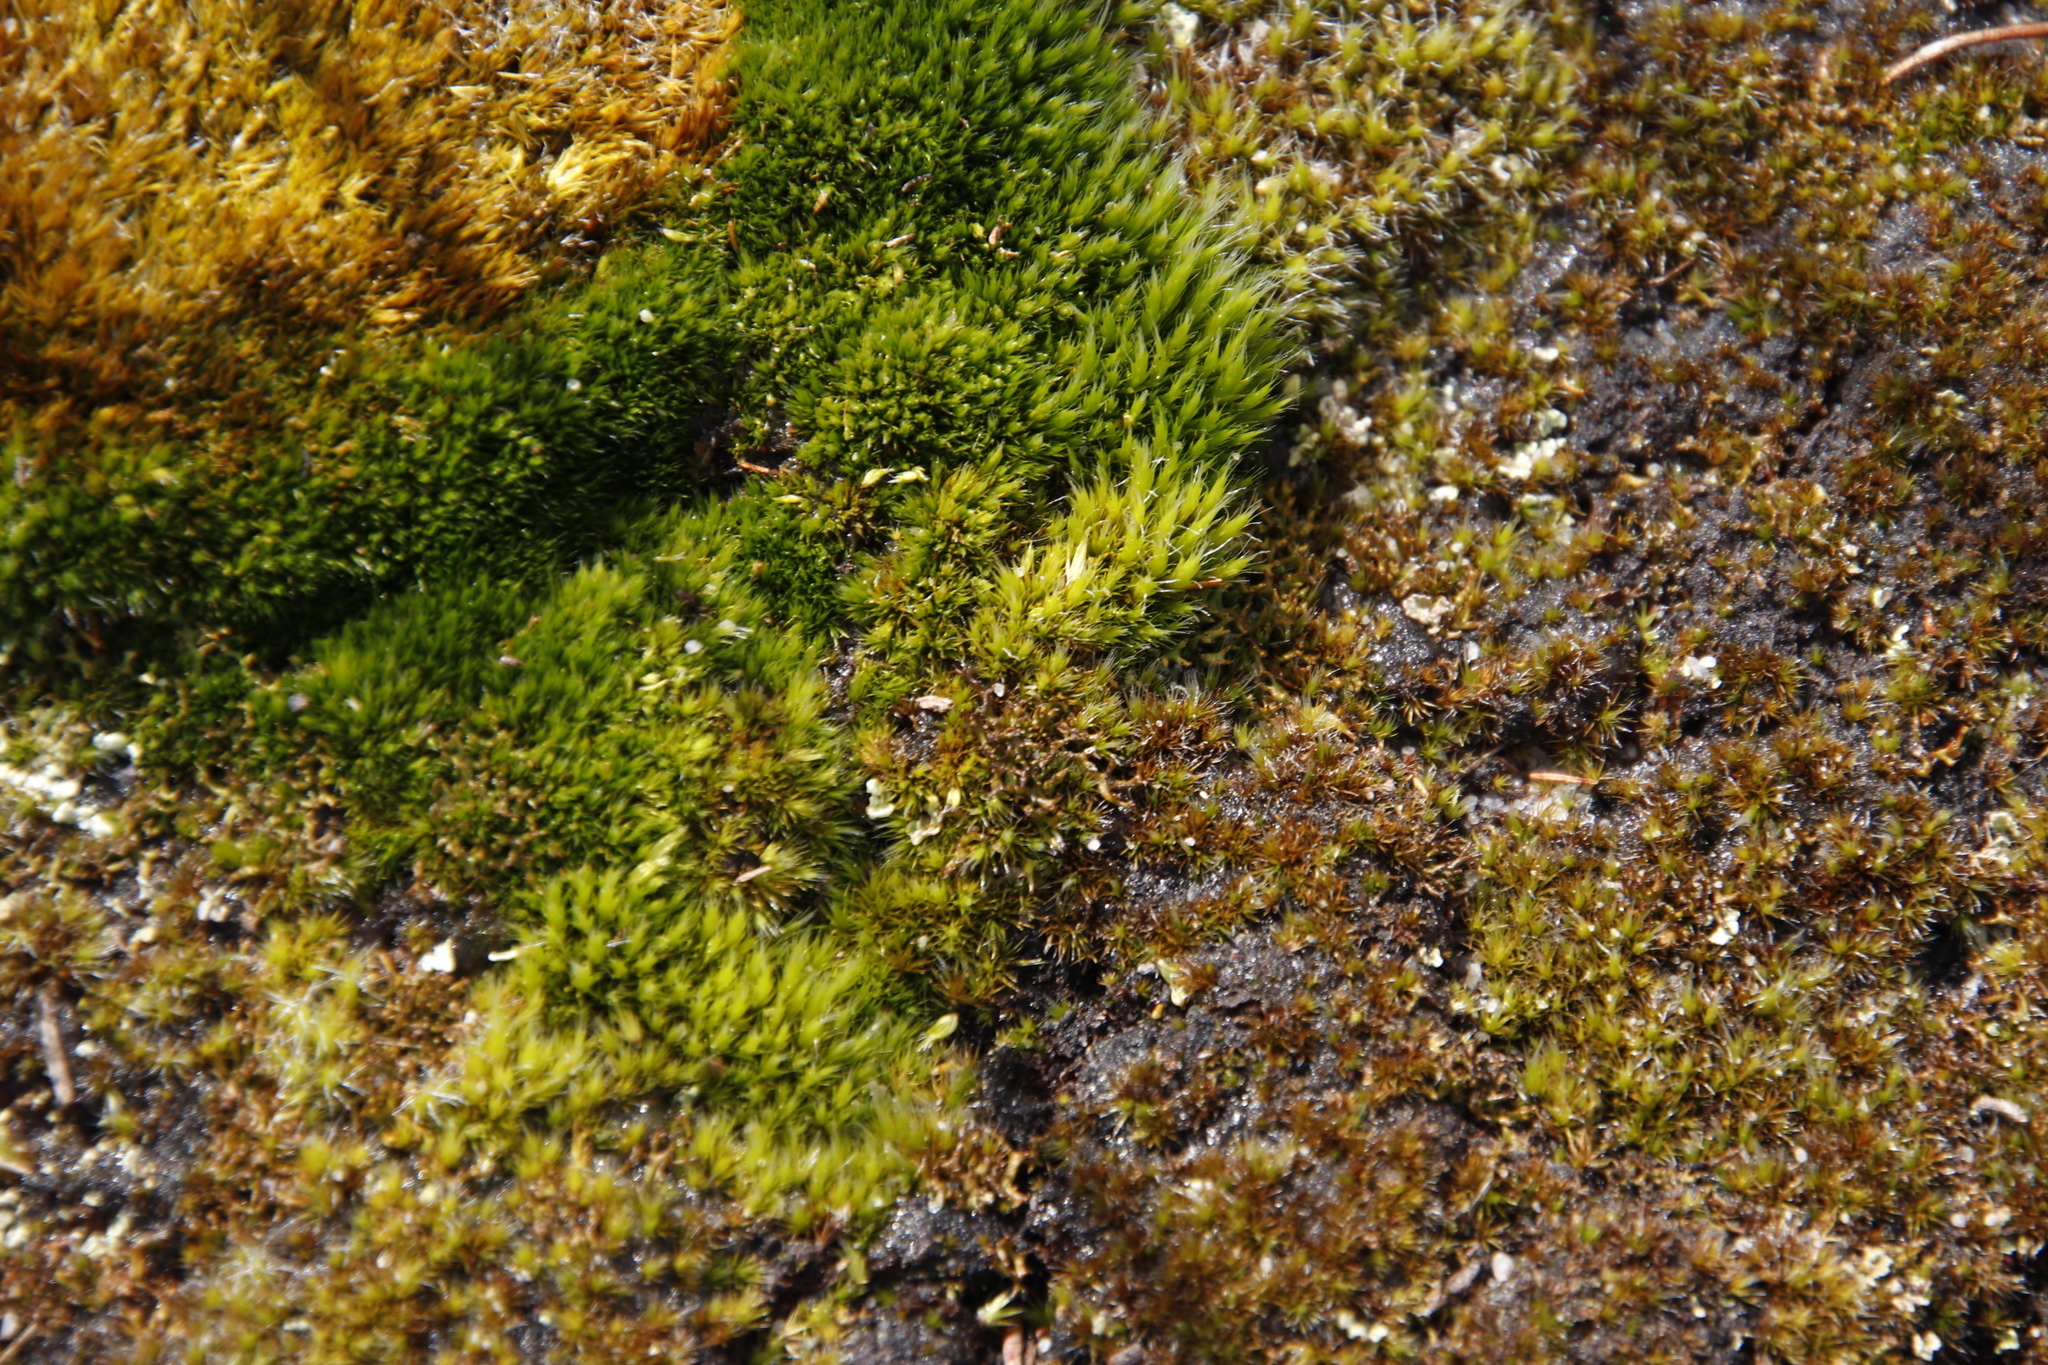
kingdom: Plantae
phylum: Bryophyta
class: Bryopsida
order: Dicranales
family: Leucobryaceae
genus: Campylopus
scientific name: Campylopus introflexus
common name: Heath star moss
